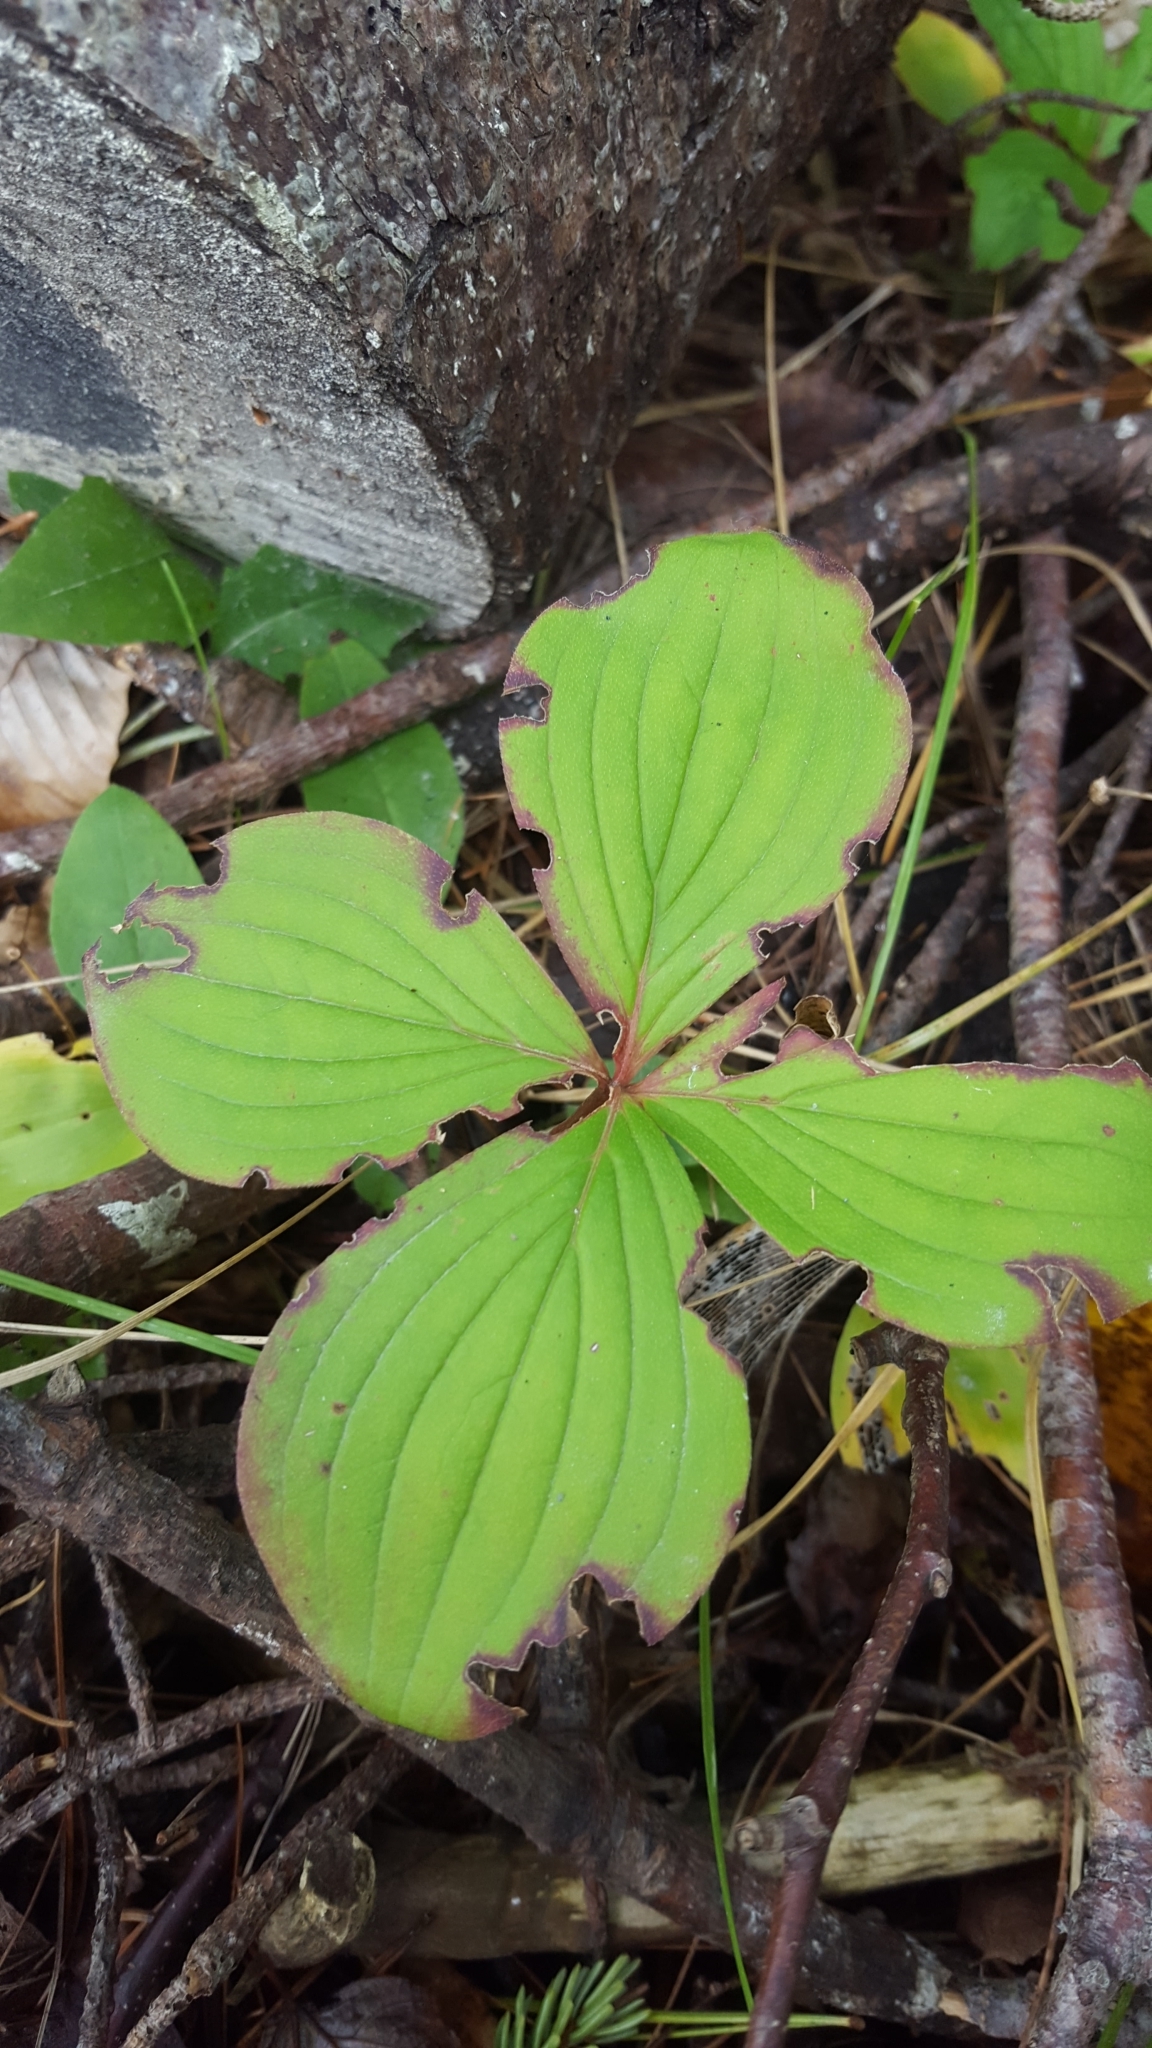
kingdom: Plantae
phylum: Tracheophyta
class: Magnoliopsida
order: Cornales
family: Cornaceae
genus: Cornus
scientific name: Cornus canadensis
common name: Creeping dogwood
